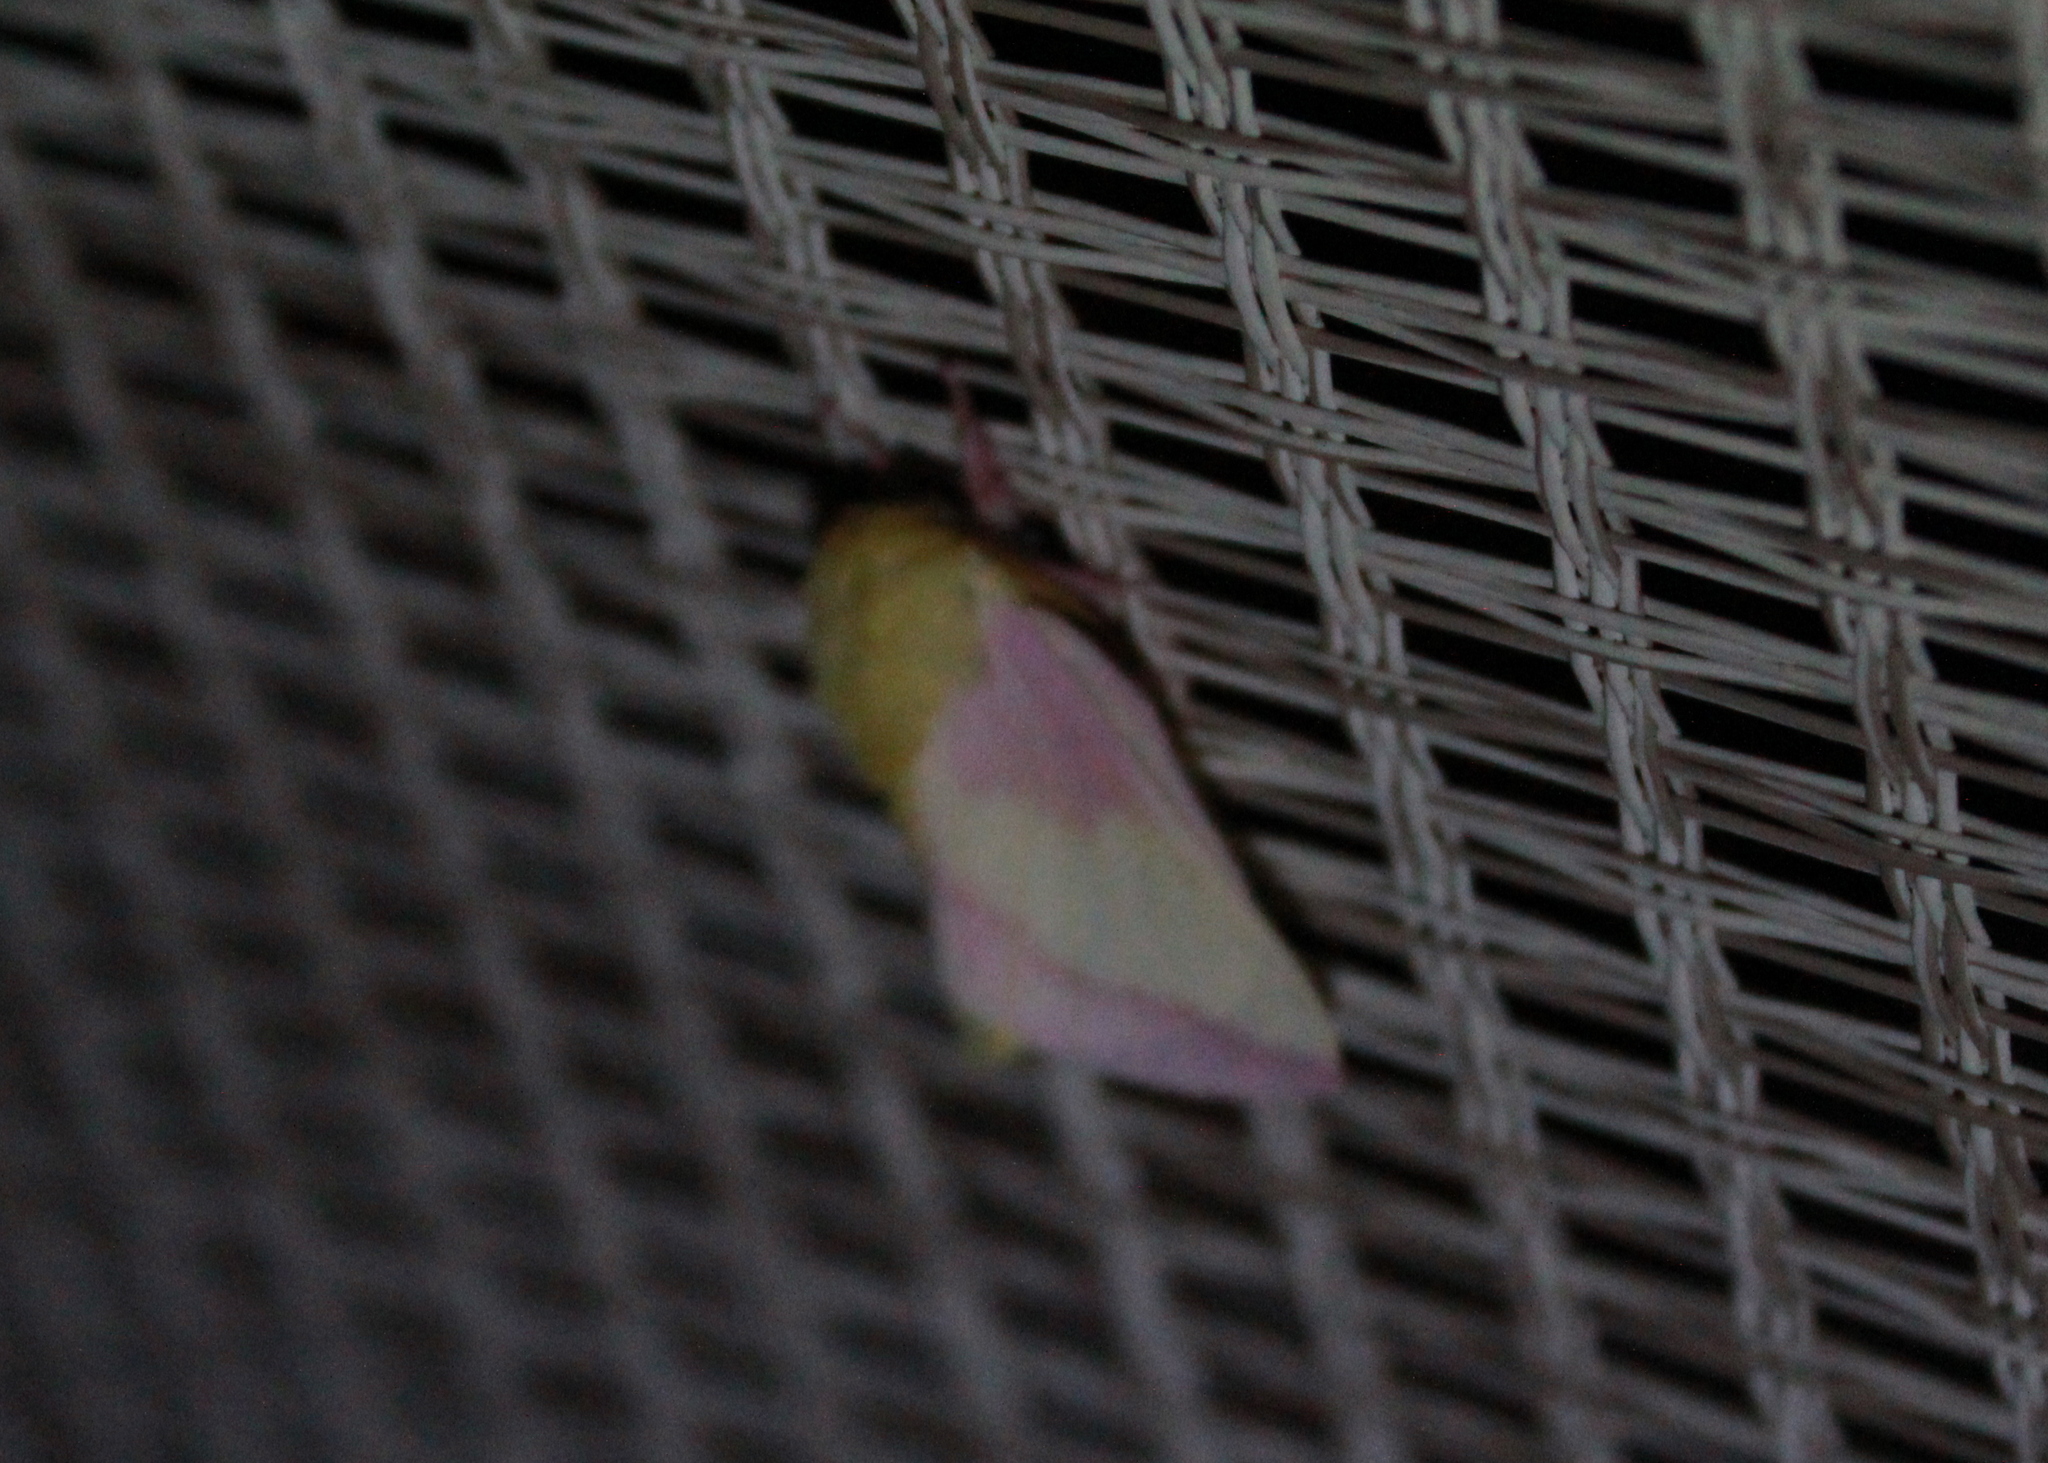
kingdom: Animalia
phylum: Arthropoda
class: Insecta
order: Lepidoptera
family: Saturniidae
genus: Dryocampa
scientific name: Dryocampa rubicunda
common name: Rosy maple moth
